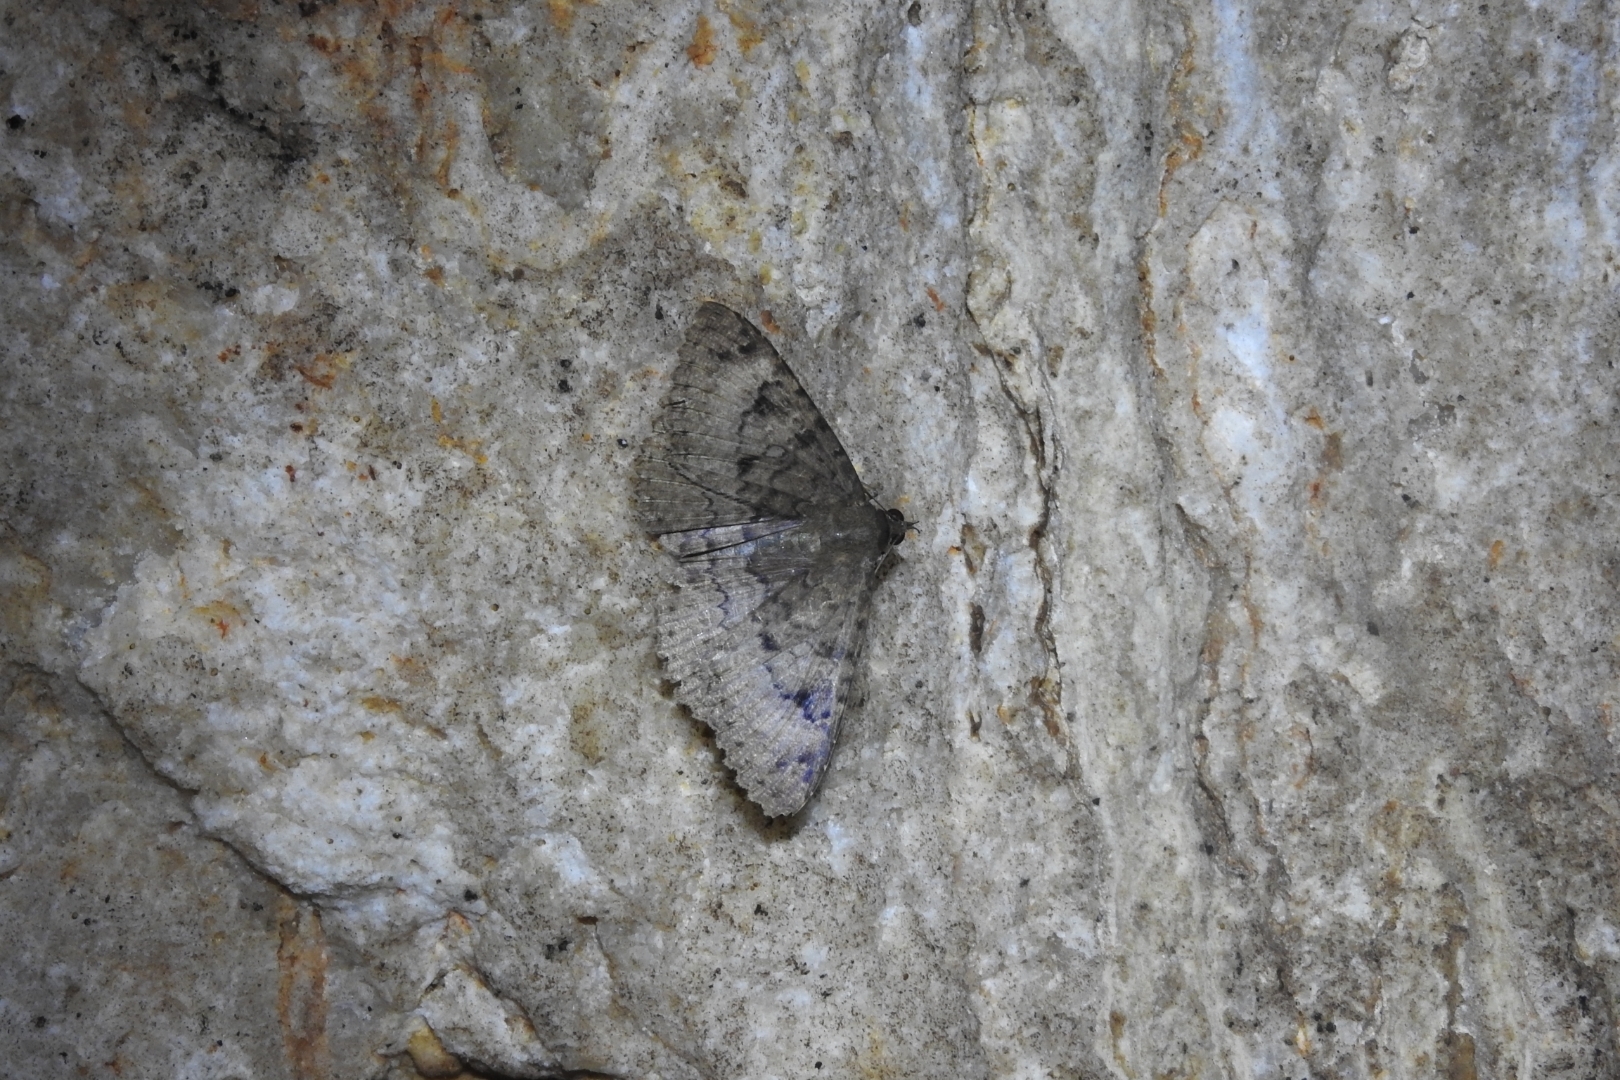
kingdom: Animalia
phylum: Arthropoda
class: Insecta
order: Lepidoptera
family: Erebidae
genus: Latebraria
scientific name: Latebraria amphipyroides
